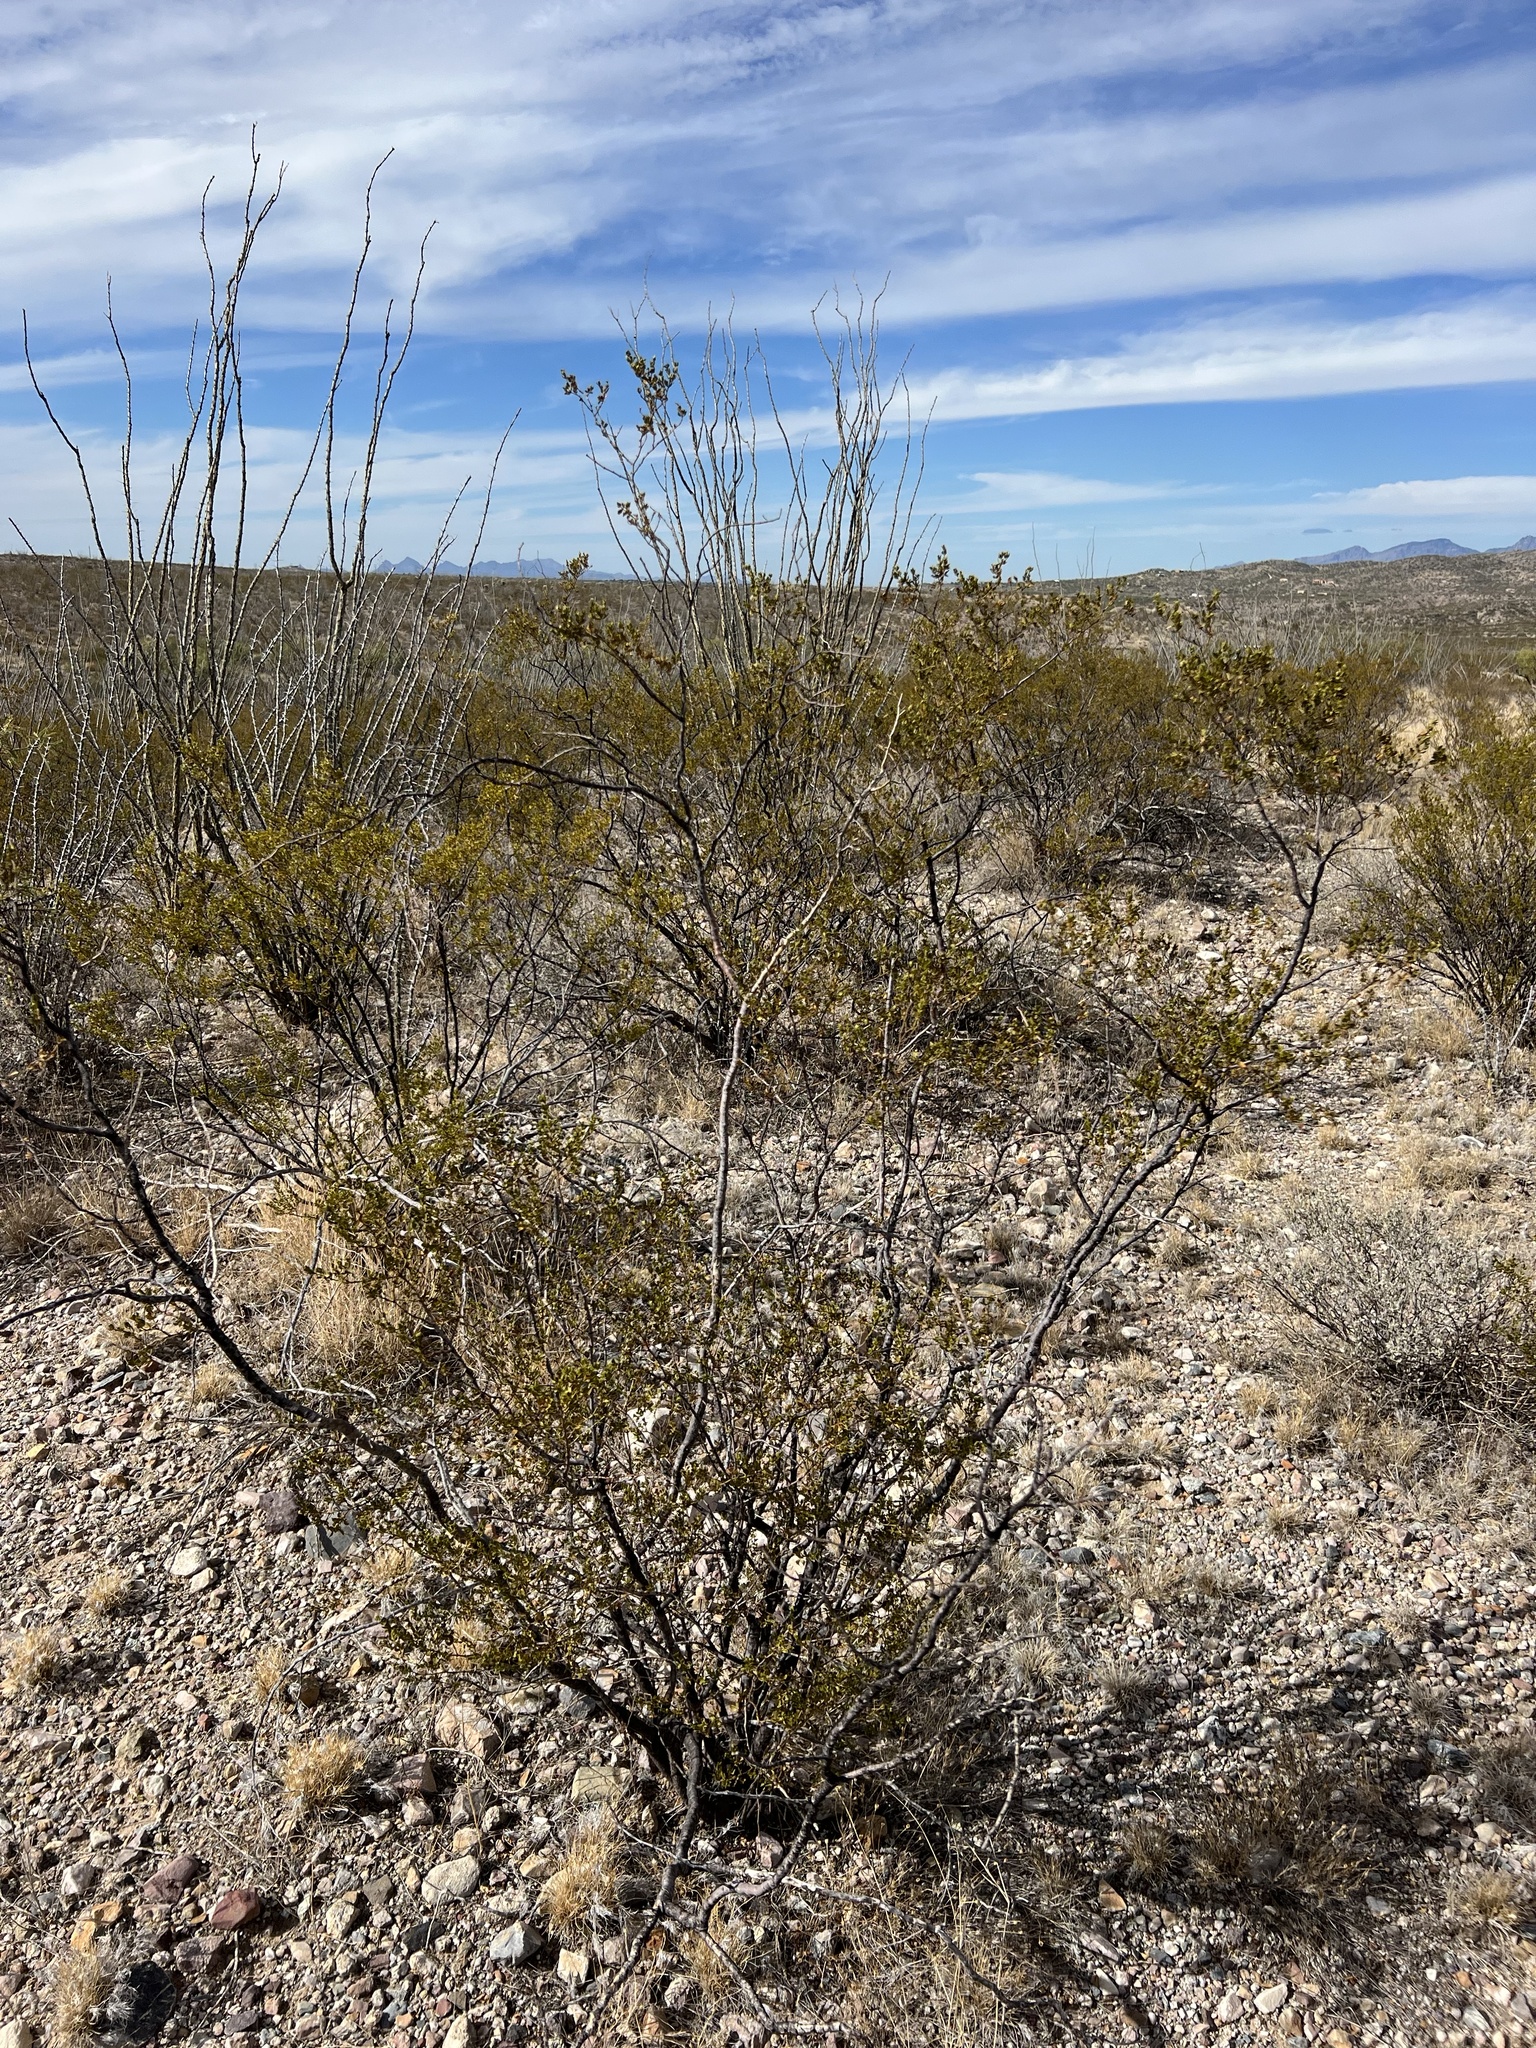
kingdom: Plantae
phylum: Tracheophyta
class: Magnoliopsida
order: Zygophyllales
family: Zygophyllaceae
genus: Larrea
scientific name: Larrea tridentata
